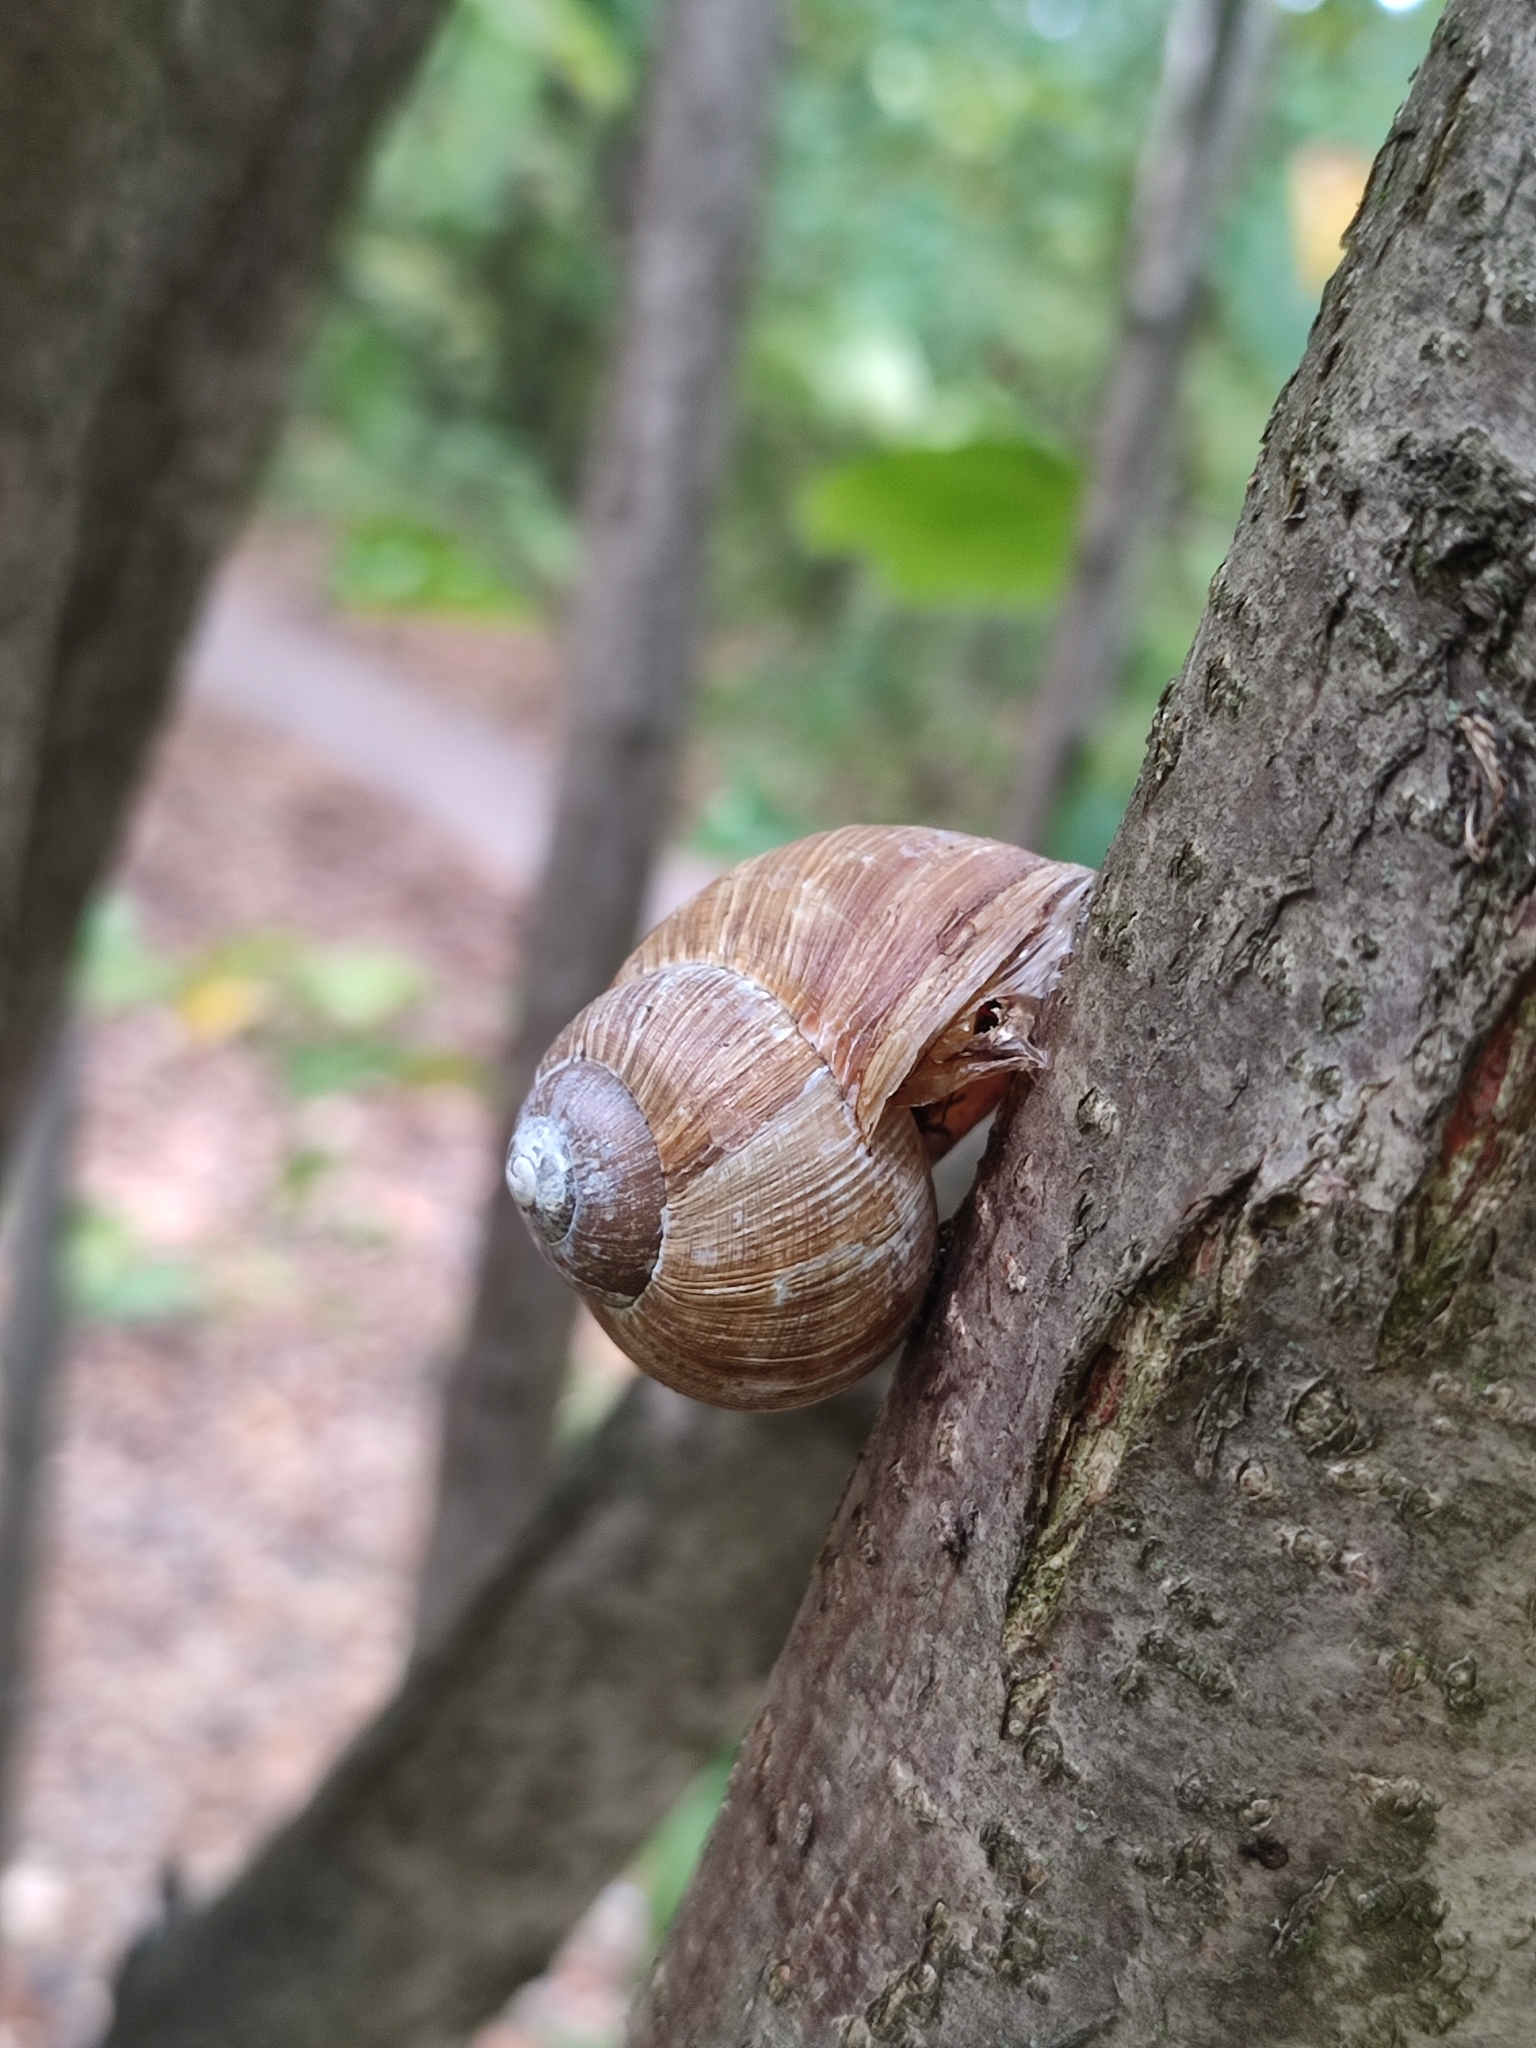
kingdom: Animalia
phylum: Mollusca
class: Gastropoda
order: Stylommatophora
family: Helicidae
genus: Helix
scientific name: Helix pomatia
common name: Roman snail
